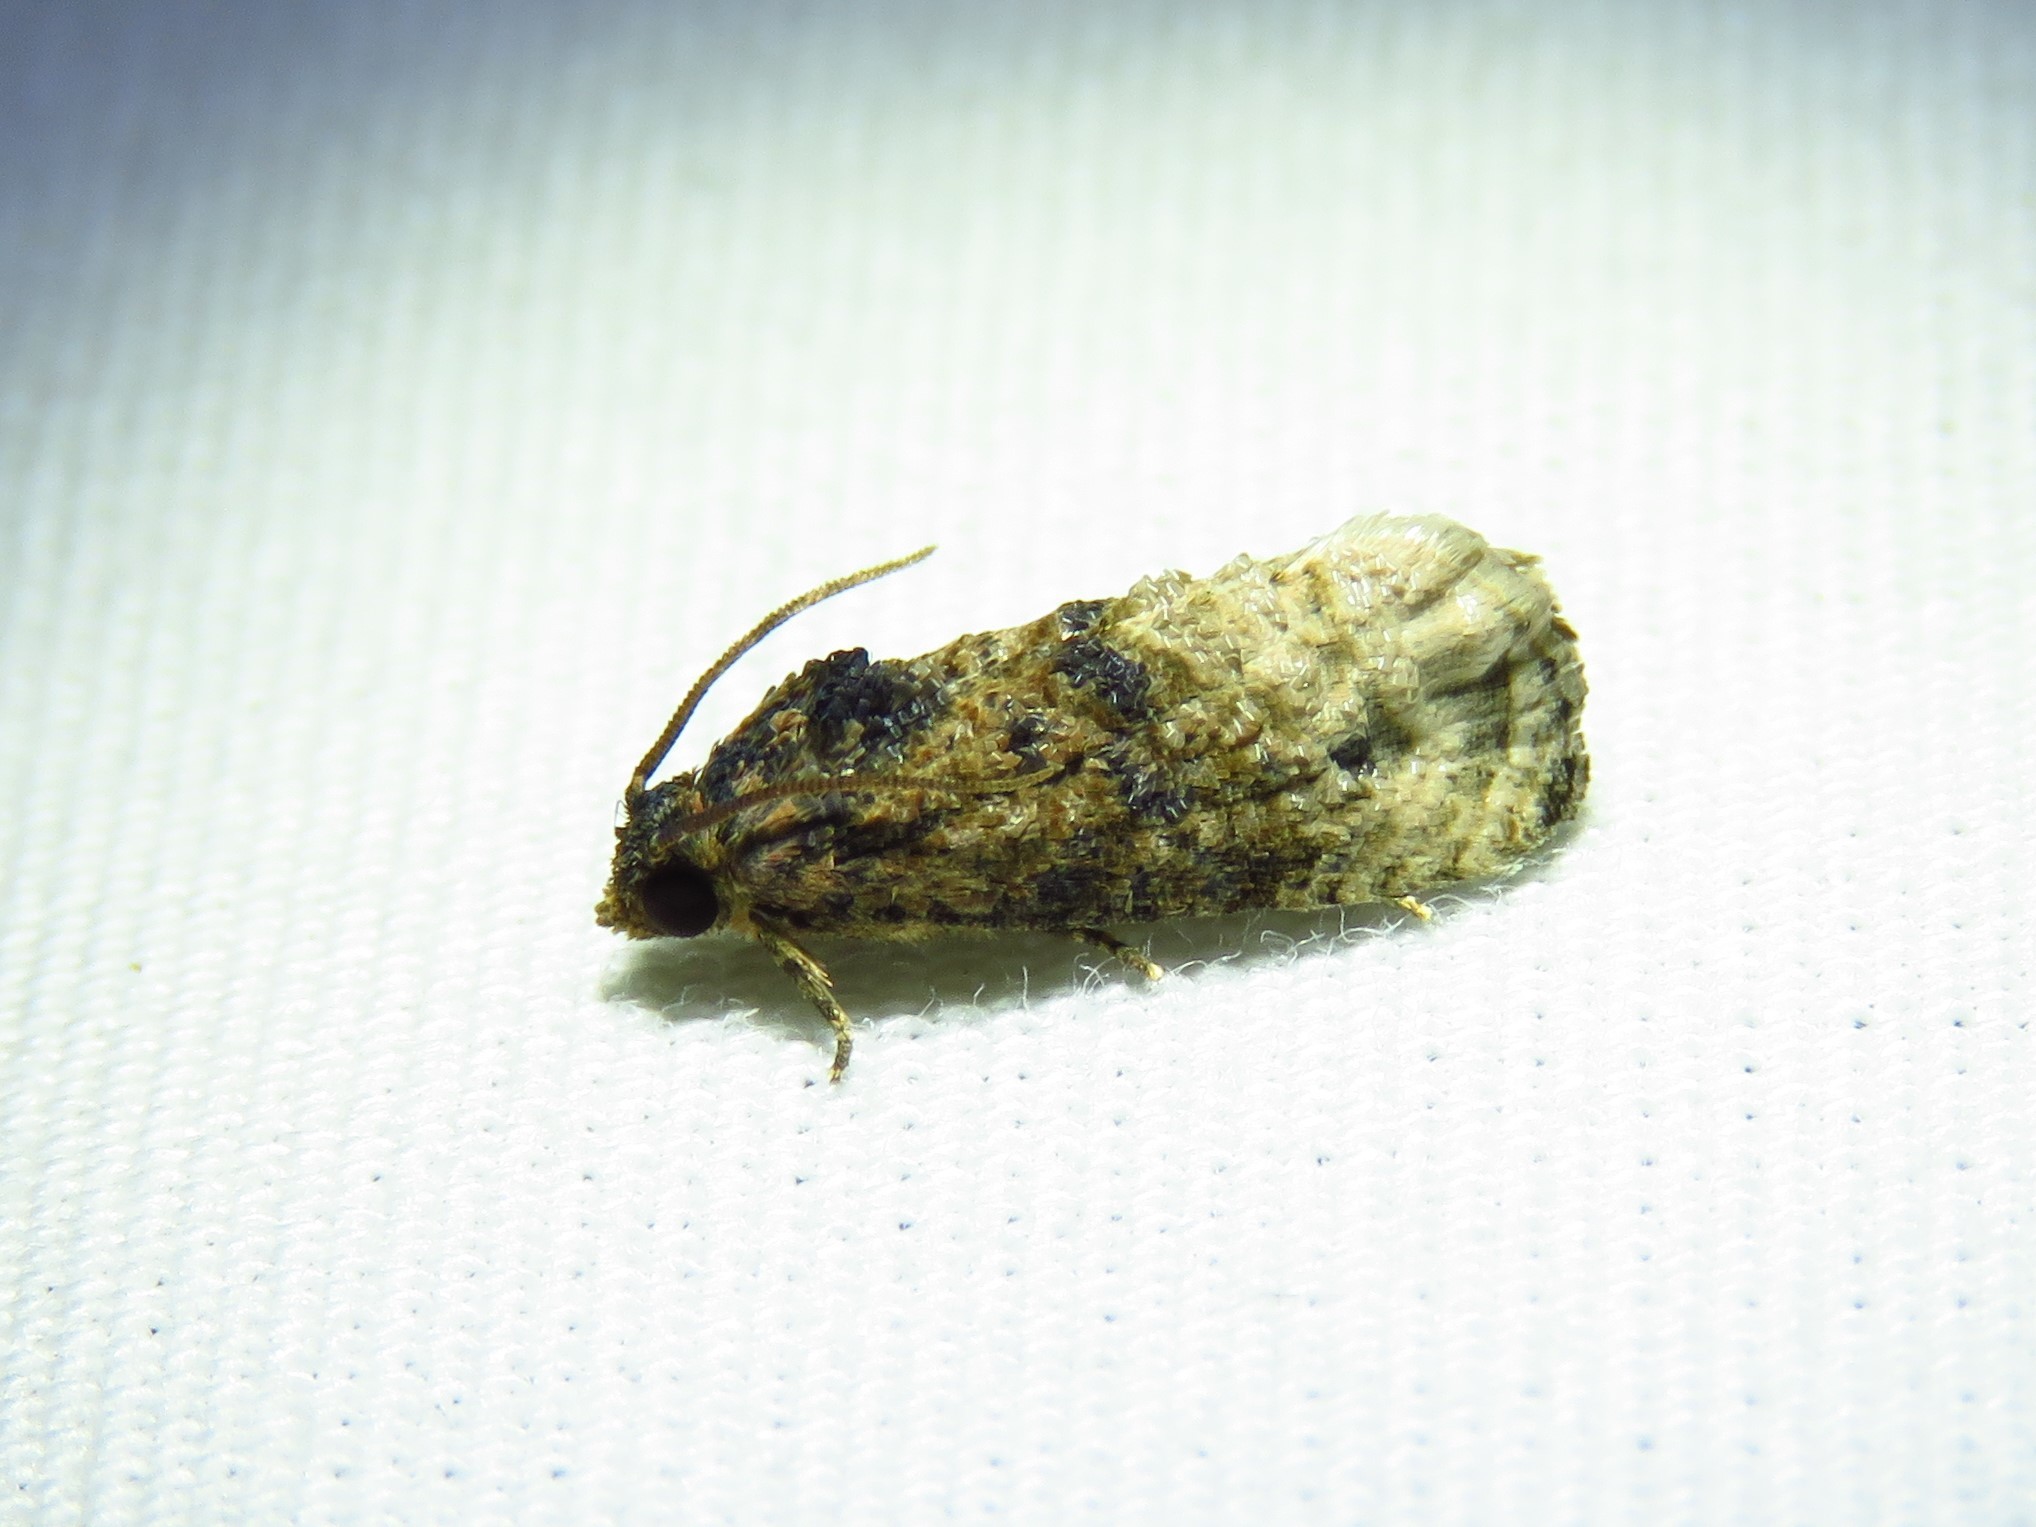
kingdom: Animalia
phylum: Arthropoda
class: Insecta
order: Lepidoptera
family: Tortricidae
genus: Ecdytolopha
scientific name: Ecdytolopha mana
